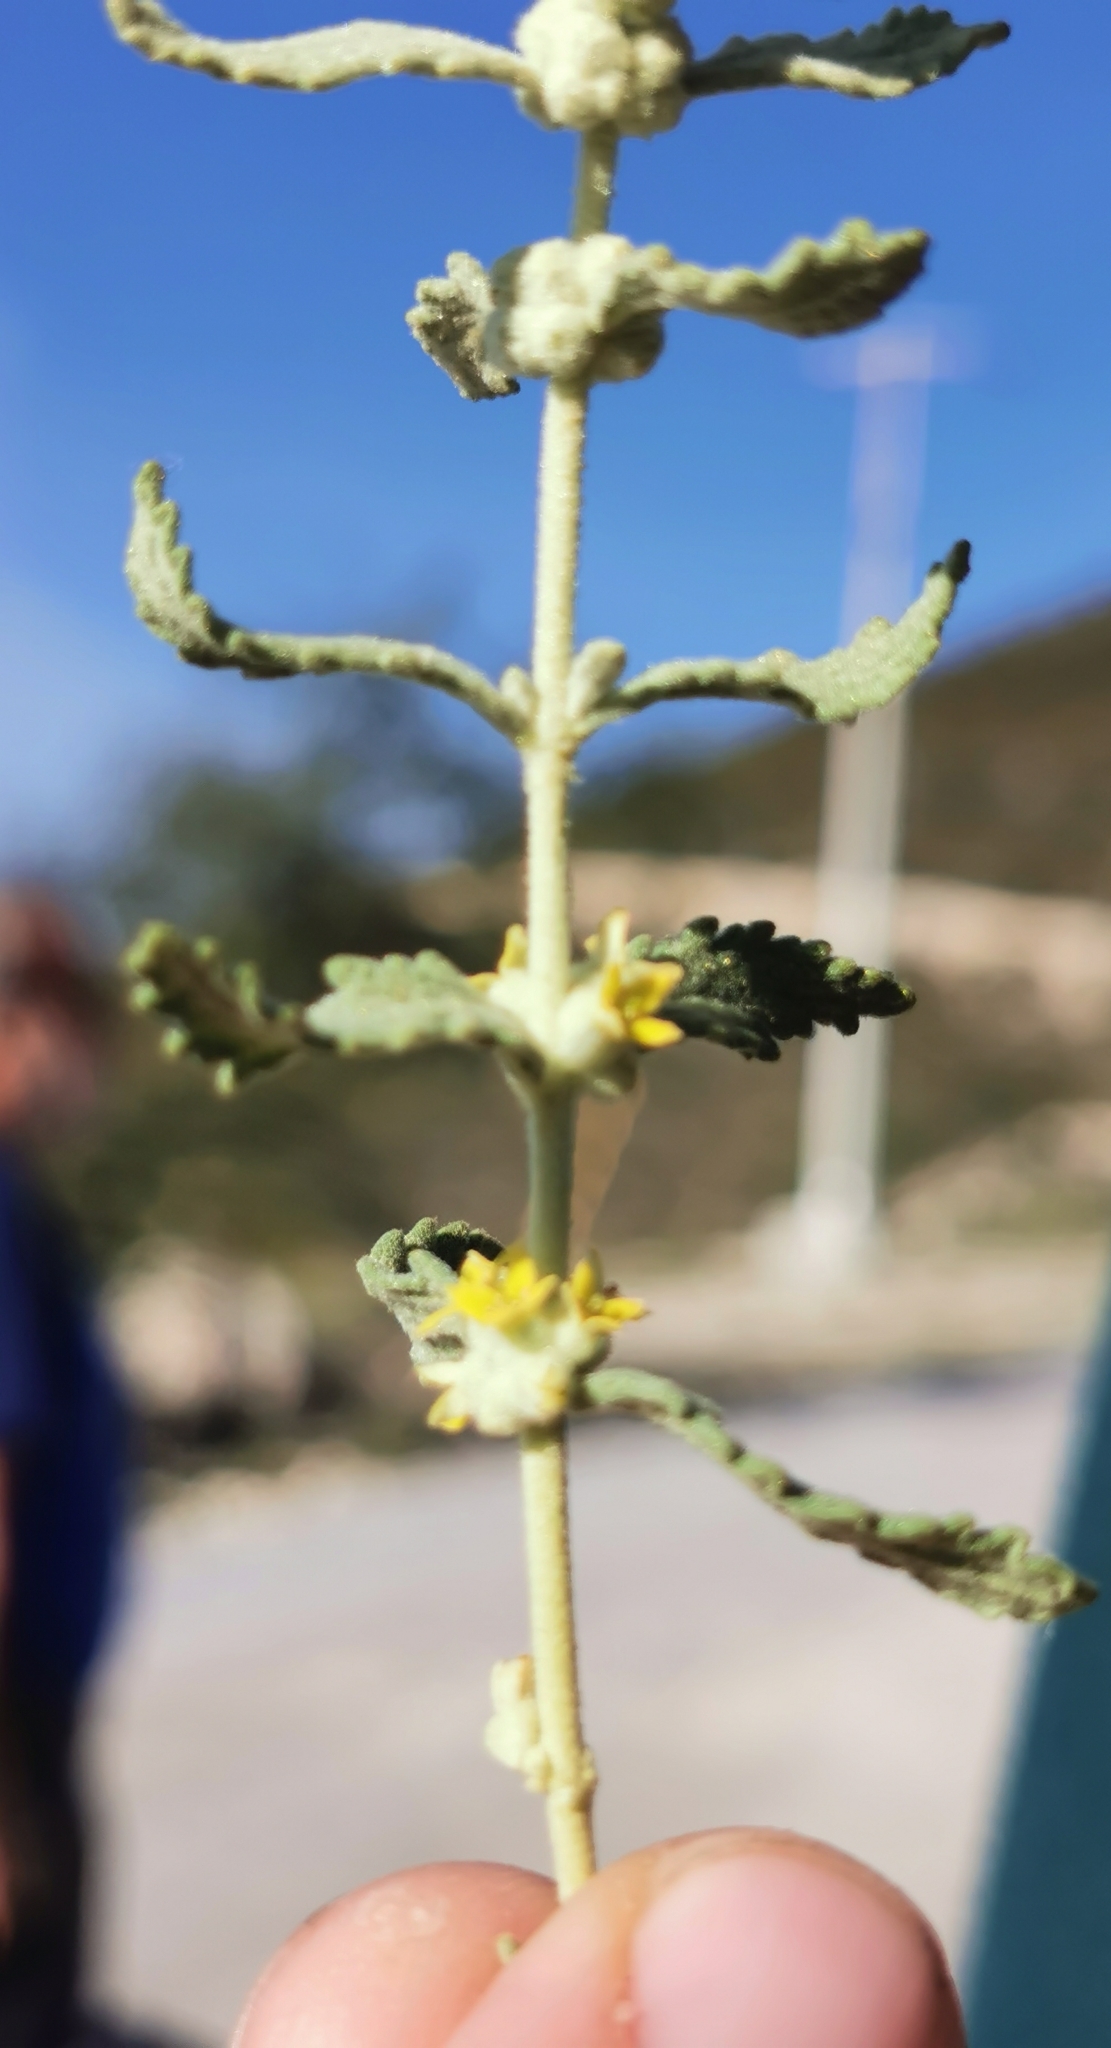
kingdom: Plantae
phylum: Tracheophyta
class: Magnoliopsida
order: Lamiales
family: Scrophulariaceae
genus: Buddleja
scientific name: Buddleja scordioides
